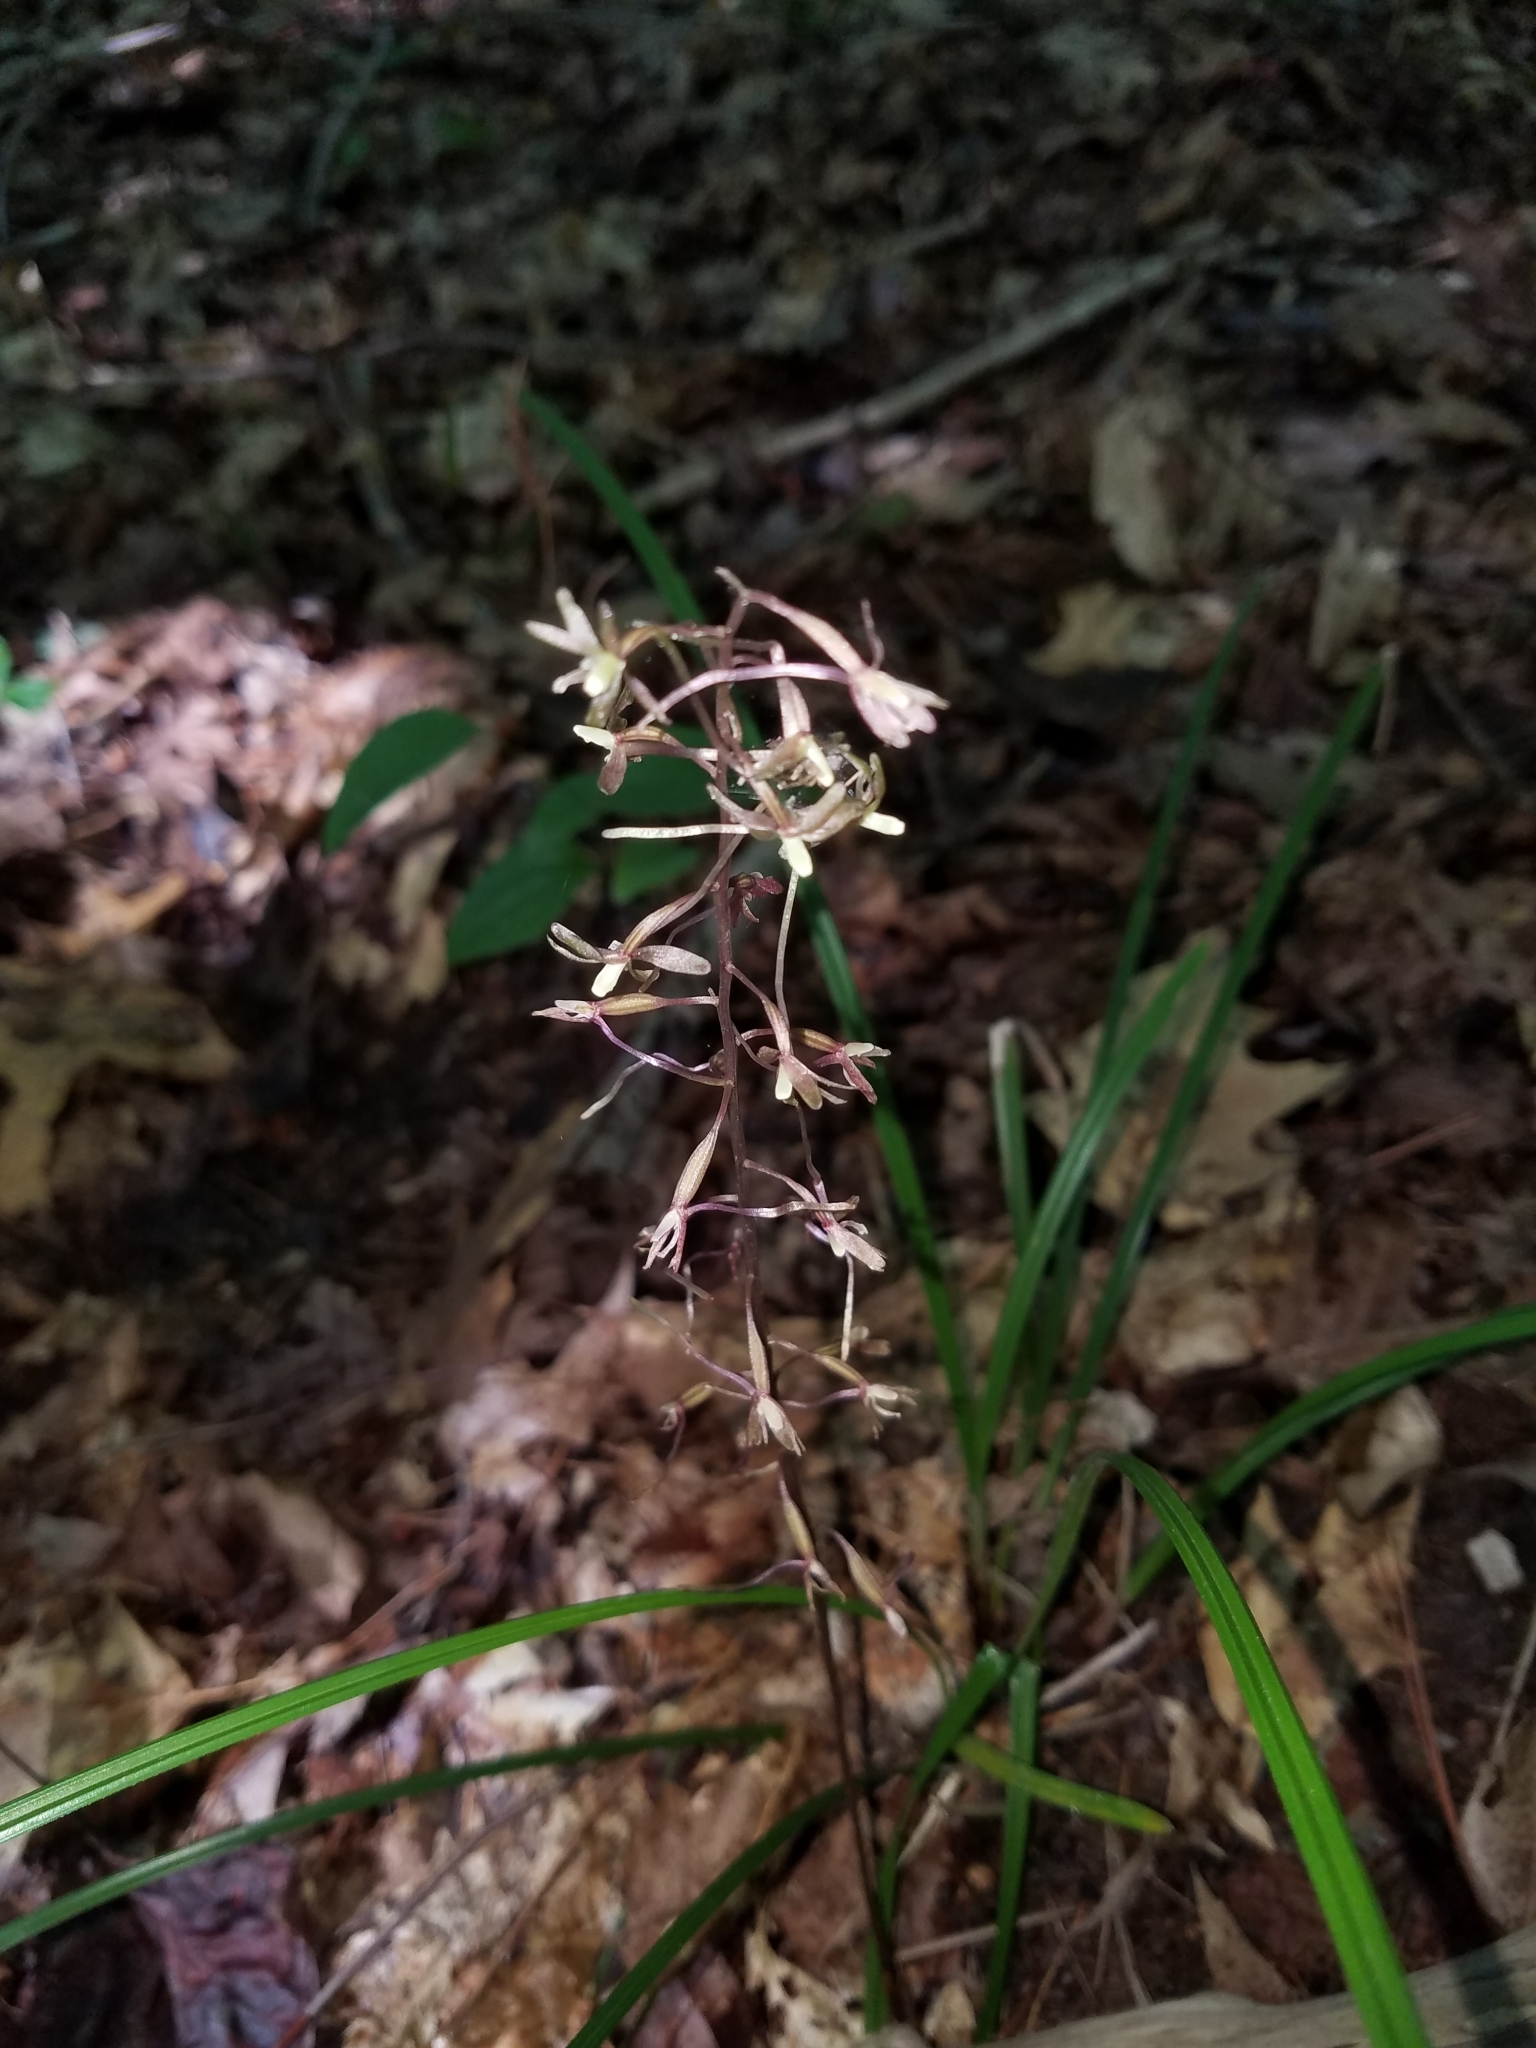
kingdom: Plantae
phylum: Tracheophyta
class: Liliopsida
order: Asparagales
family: Orchidaceae
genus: Tipularia
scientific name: Tipularia discolor
